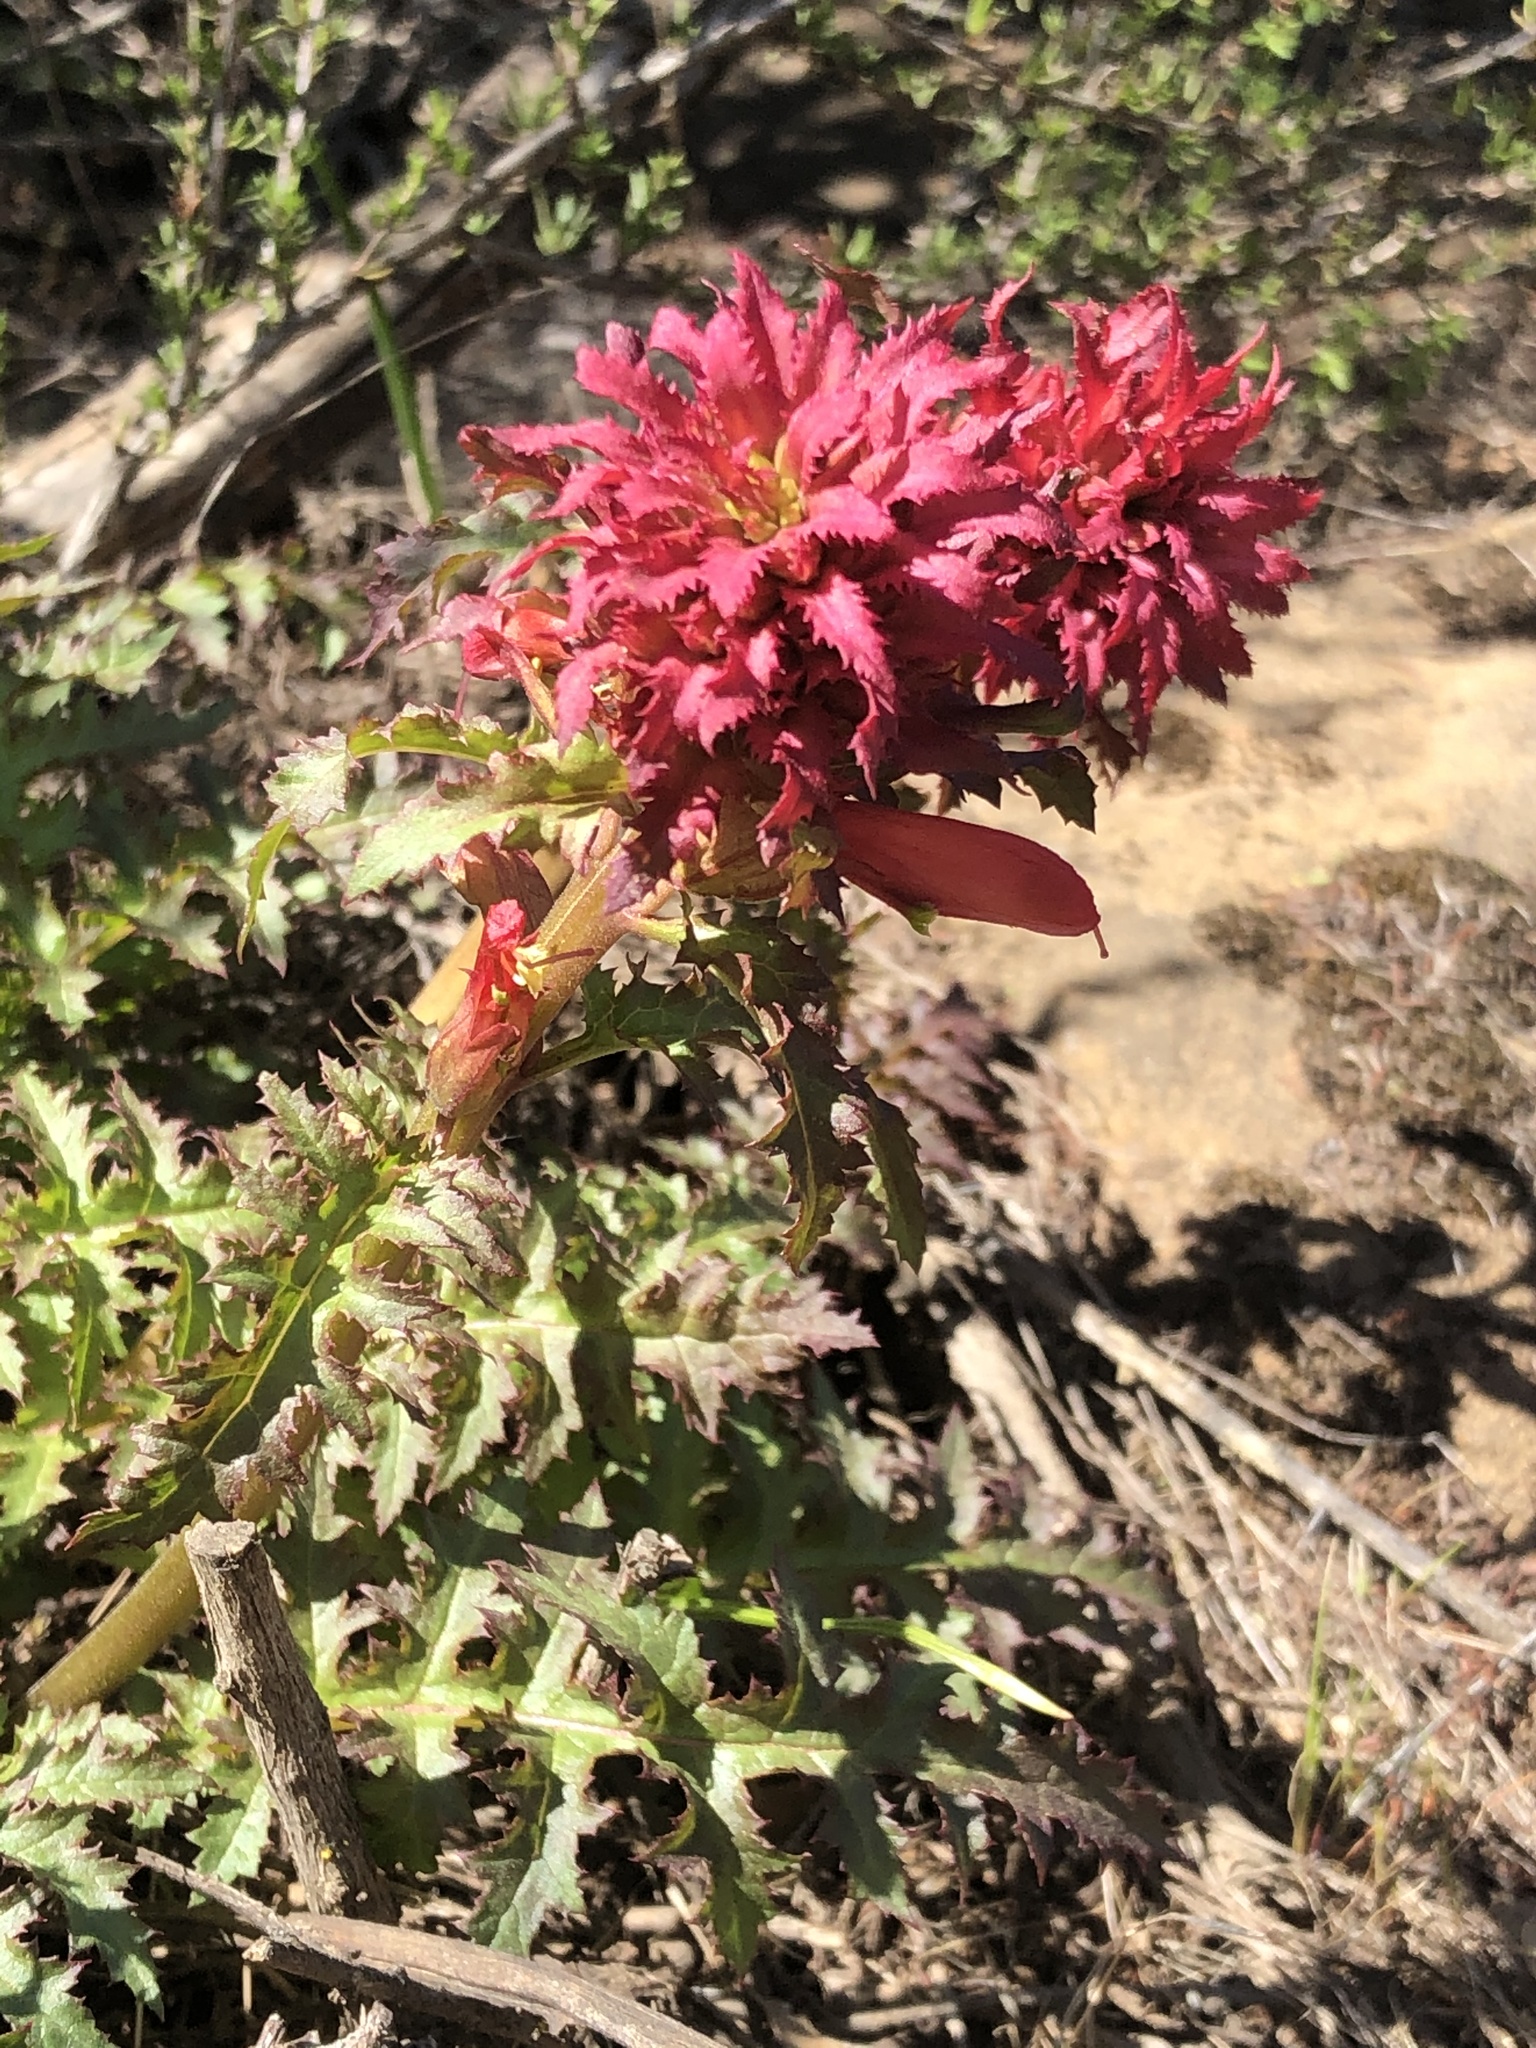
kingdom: Plantae
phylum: Tracheophyta
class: Magnoliopsida
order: Lamiales
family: Orobanchaceae
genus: Pedicularis
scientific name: Pedicularis densiflora
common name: Indian warrior
